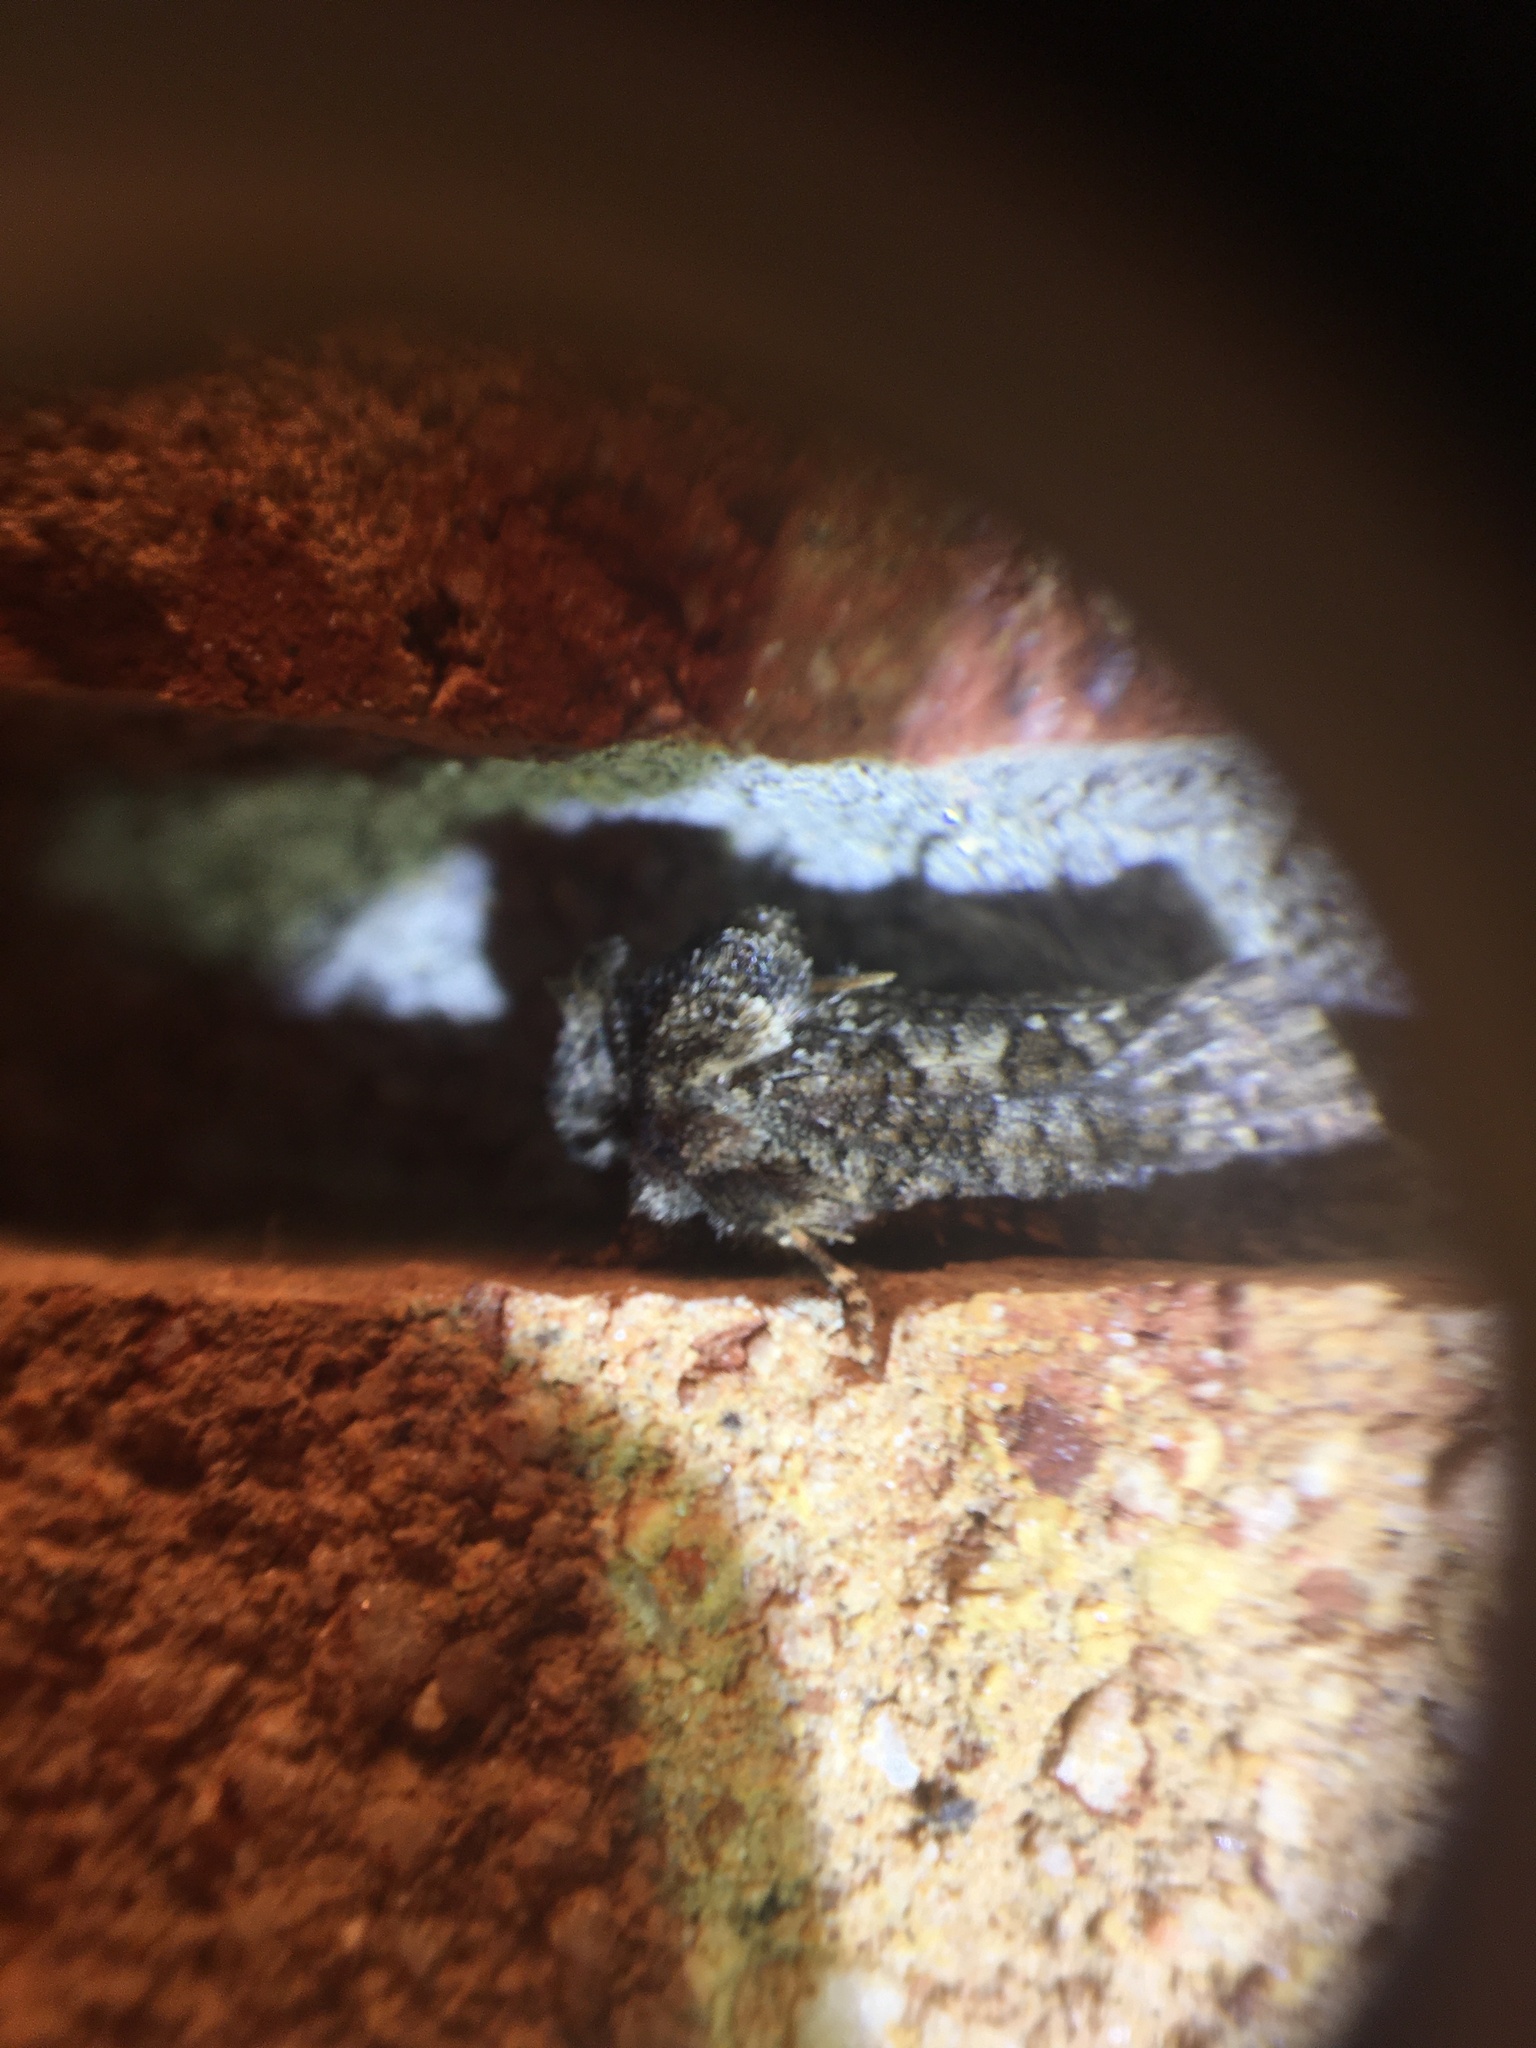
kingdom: Animalia
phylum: Arthropoda
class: Insecta
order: Lepidoptera
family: Tineidae
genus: Acrolophus
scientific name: Acrolophus arcanella
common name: Arcane grass tubeworm moth
